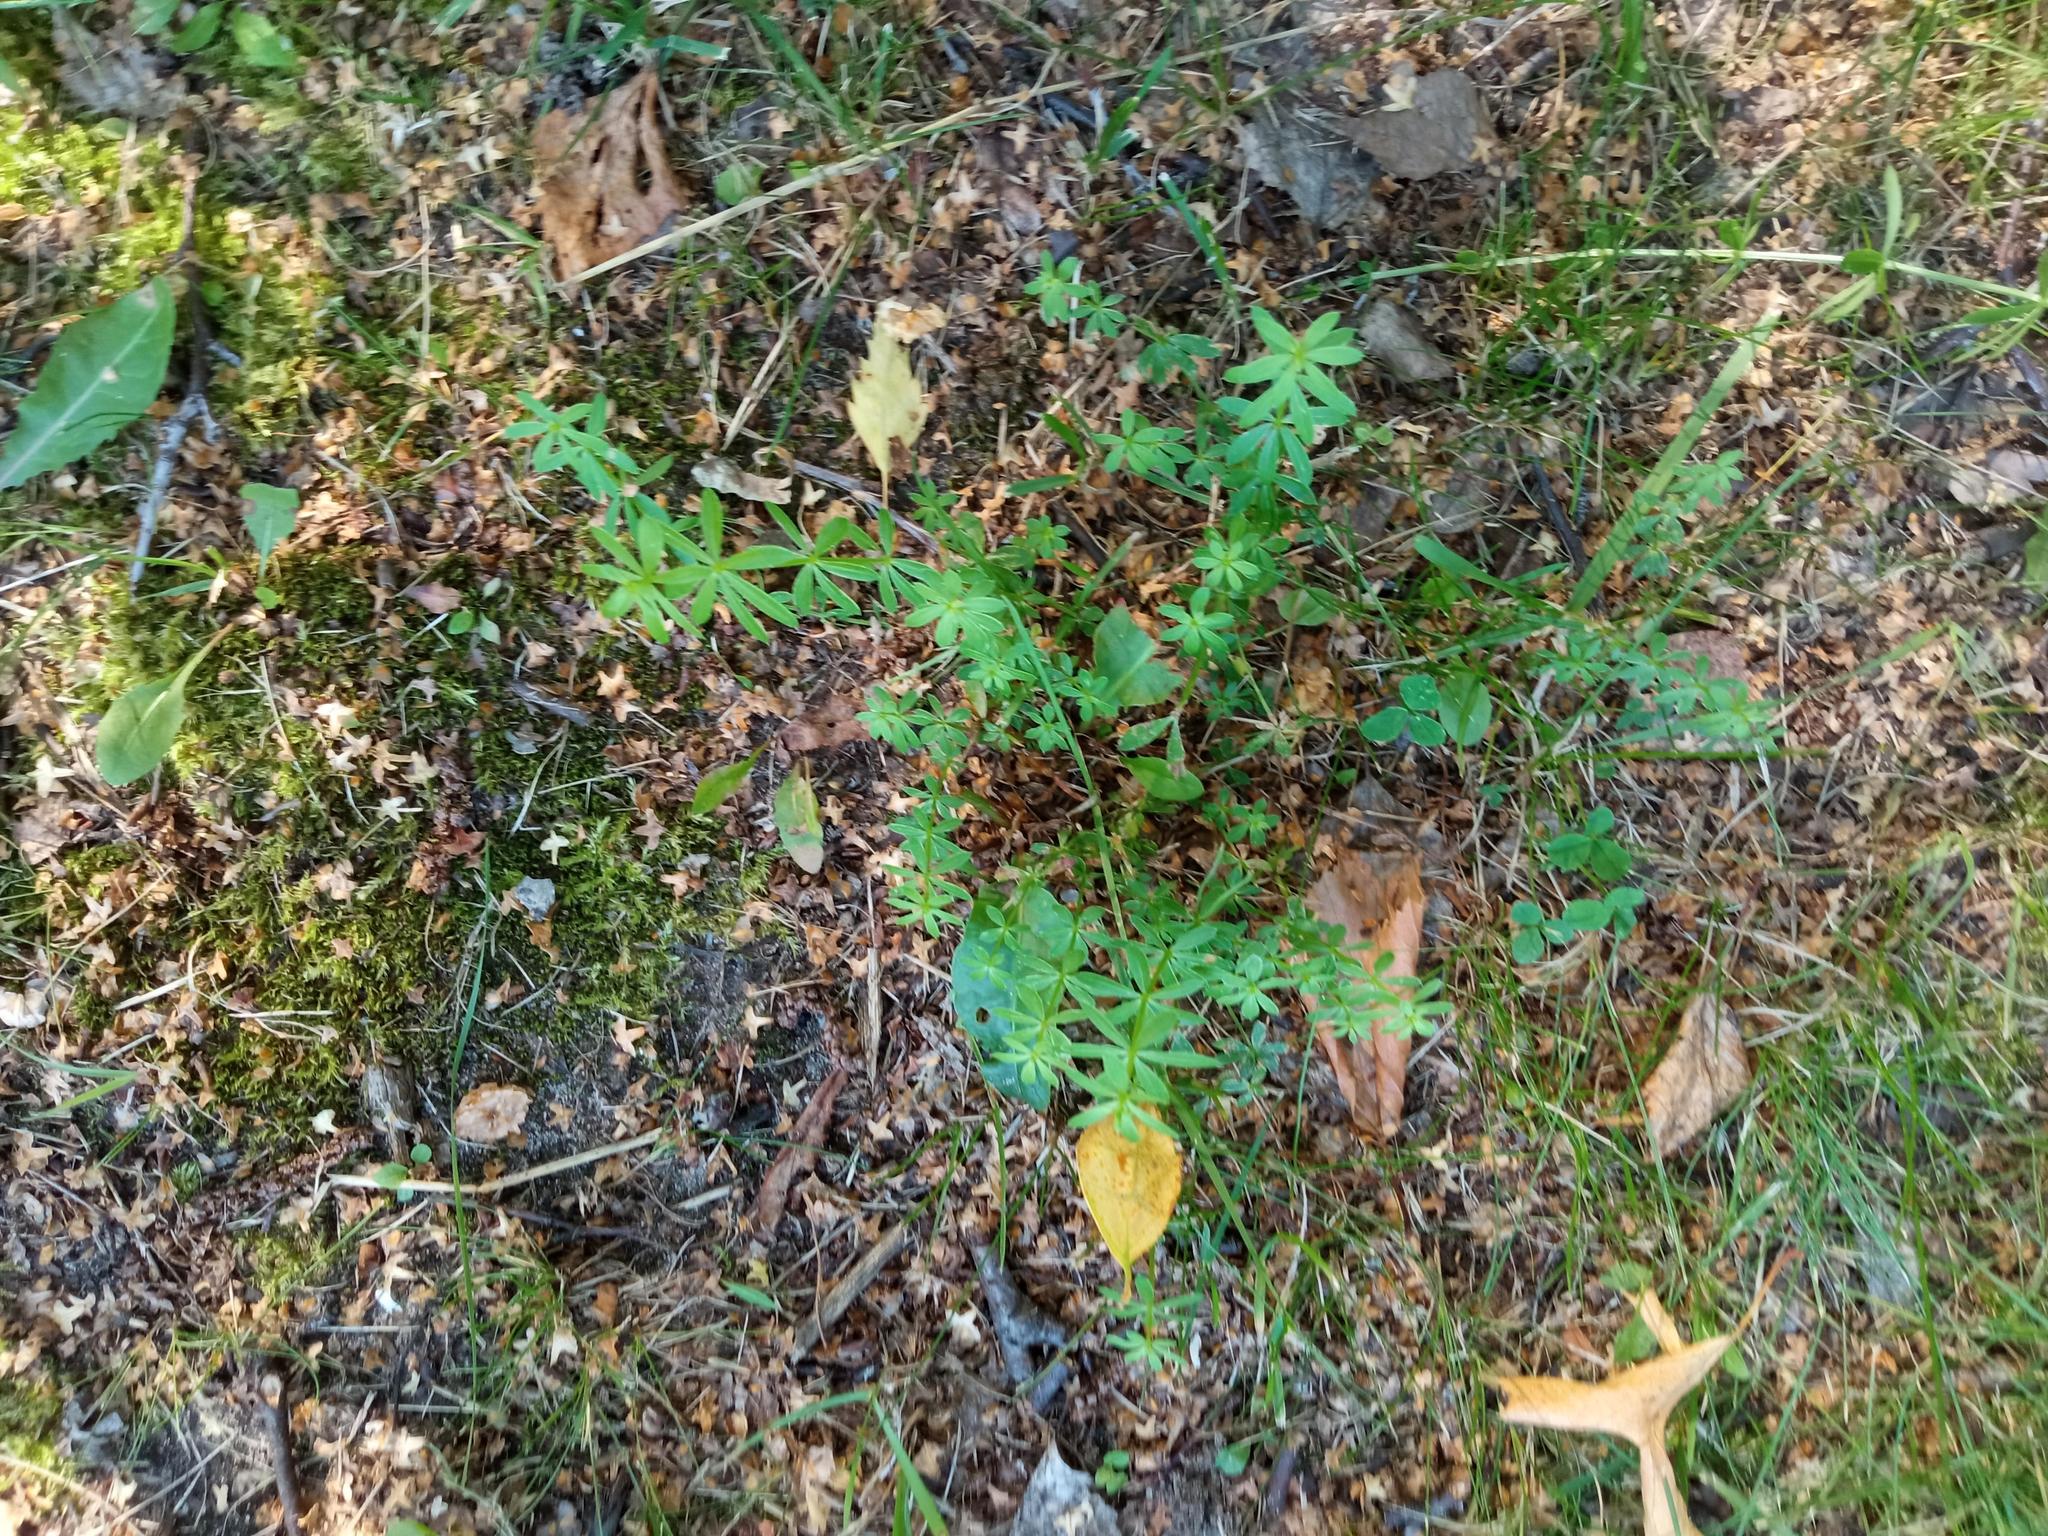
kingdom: Plantae
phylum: Tracheophyta
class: Magnoliopsida
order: Gentianales
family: Rubiaceae
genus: Galium
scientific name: Galium mollugo
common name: Hedge bedstraw
